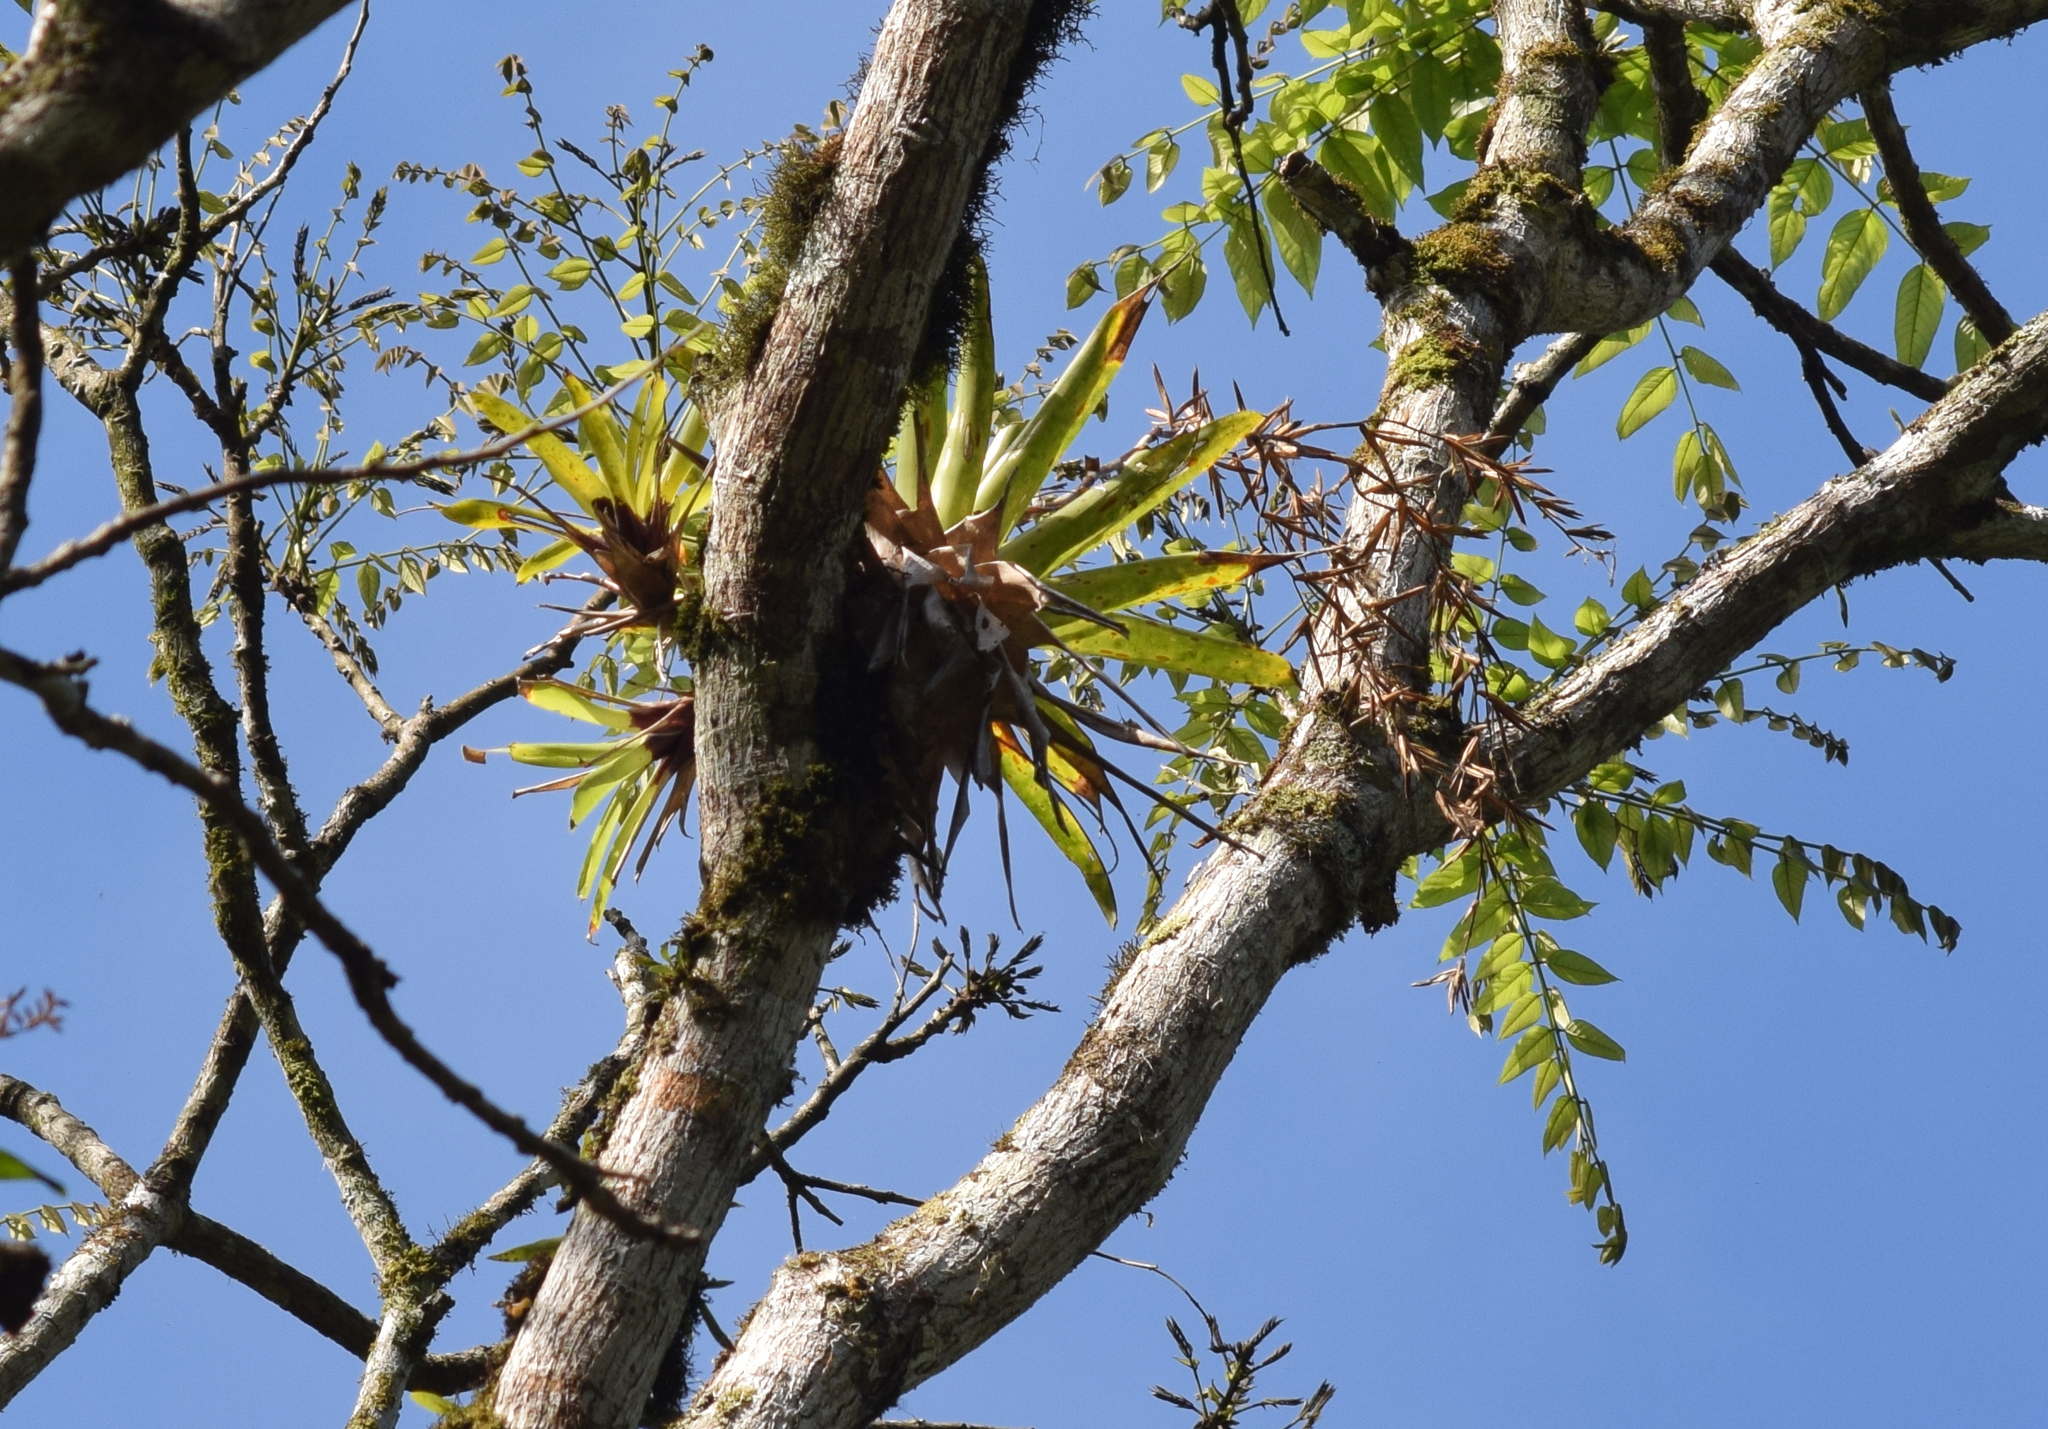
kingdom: Plantae
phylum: Tracheophyta
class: Liliopsida
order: Poales
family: Bromeliaceae
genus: Vriesea
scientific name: Vriesea vagans
